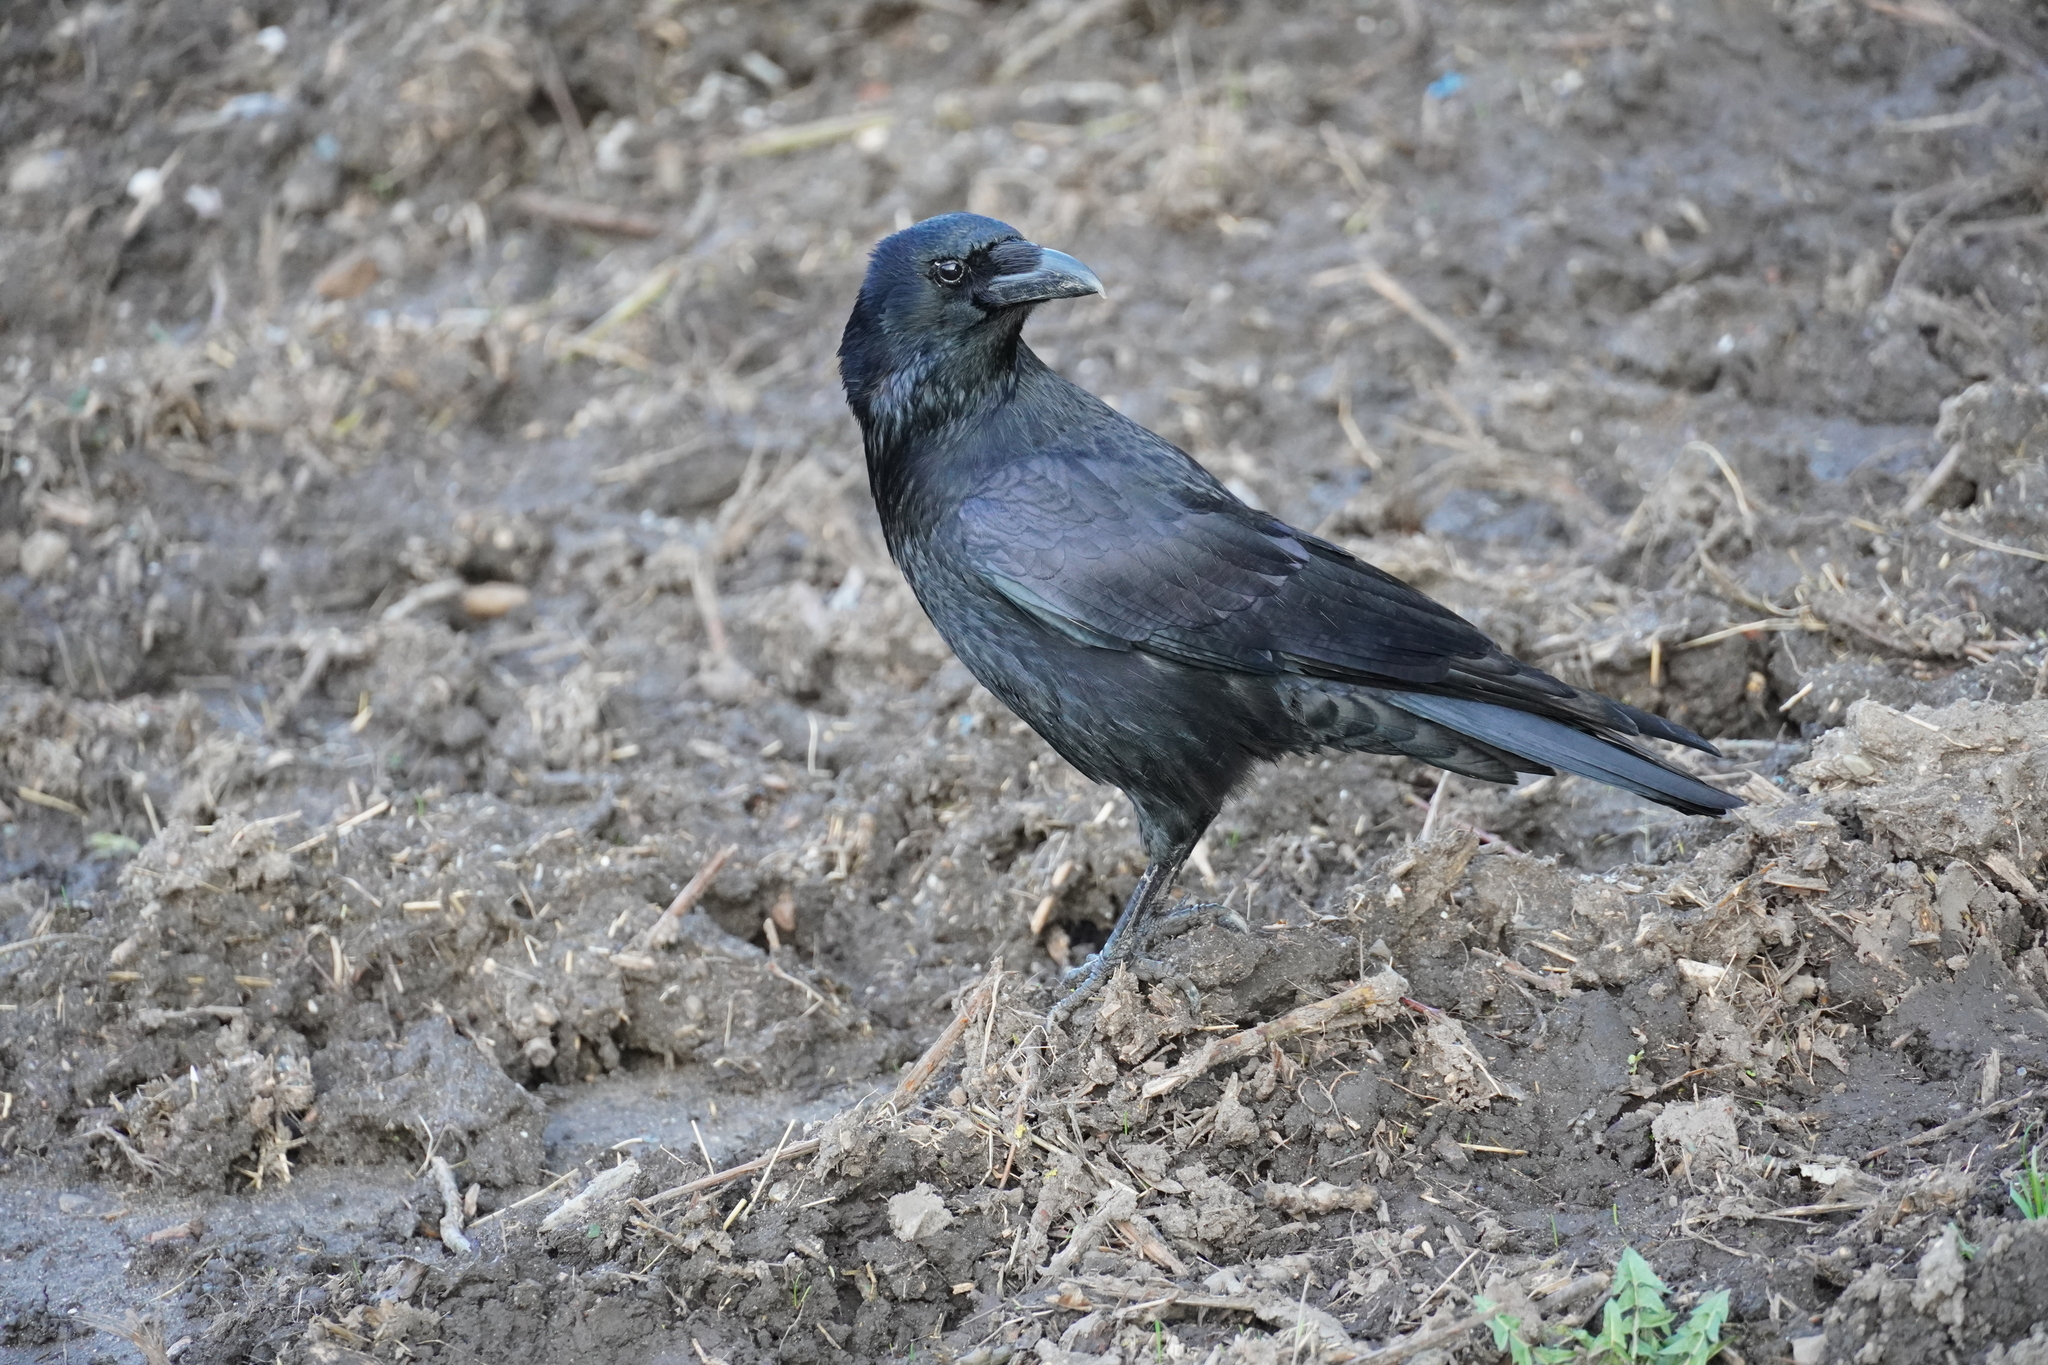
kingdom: Animalia
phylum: Chordata
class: Aves
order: Passeriformes
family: Corvidae
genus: Corvus
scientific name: Corvus corone
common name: Carrion crow
